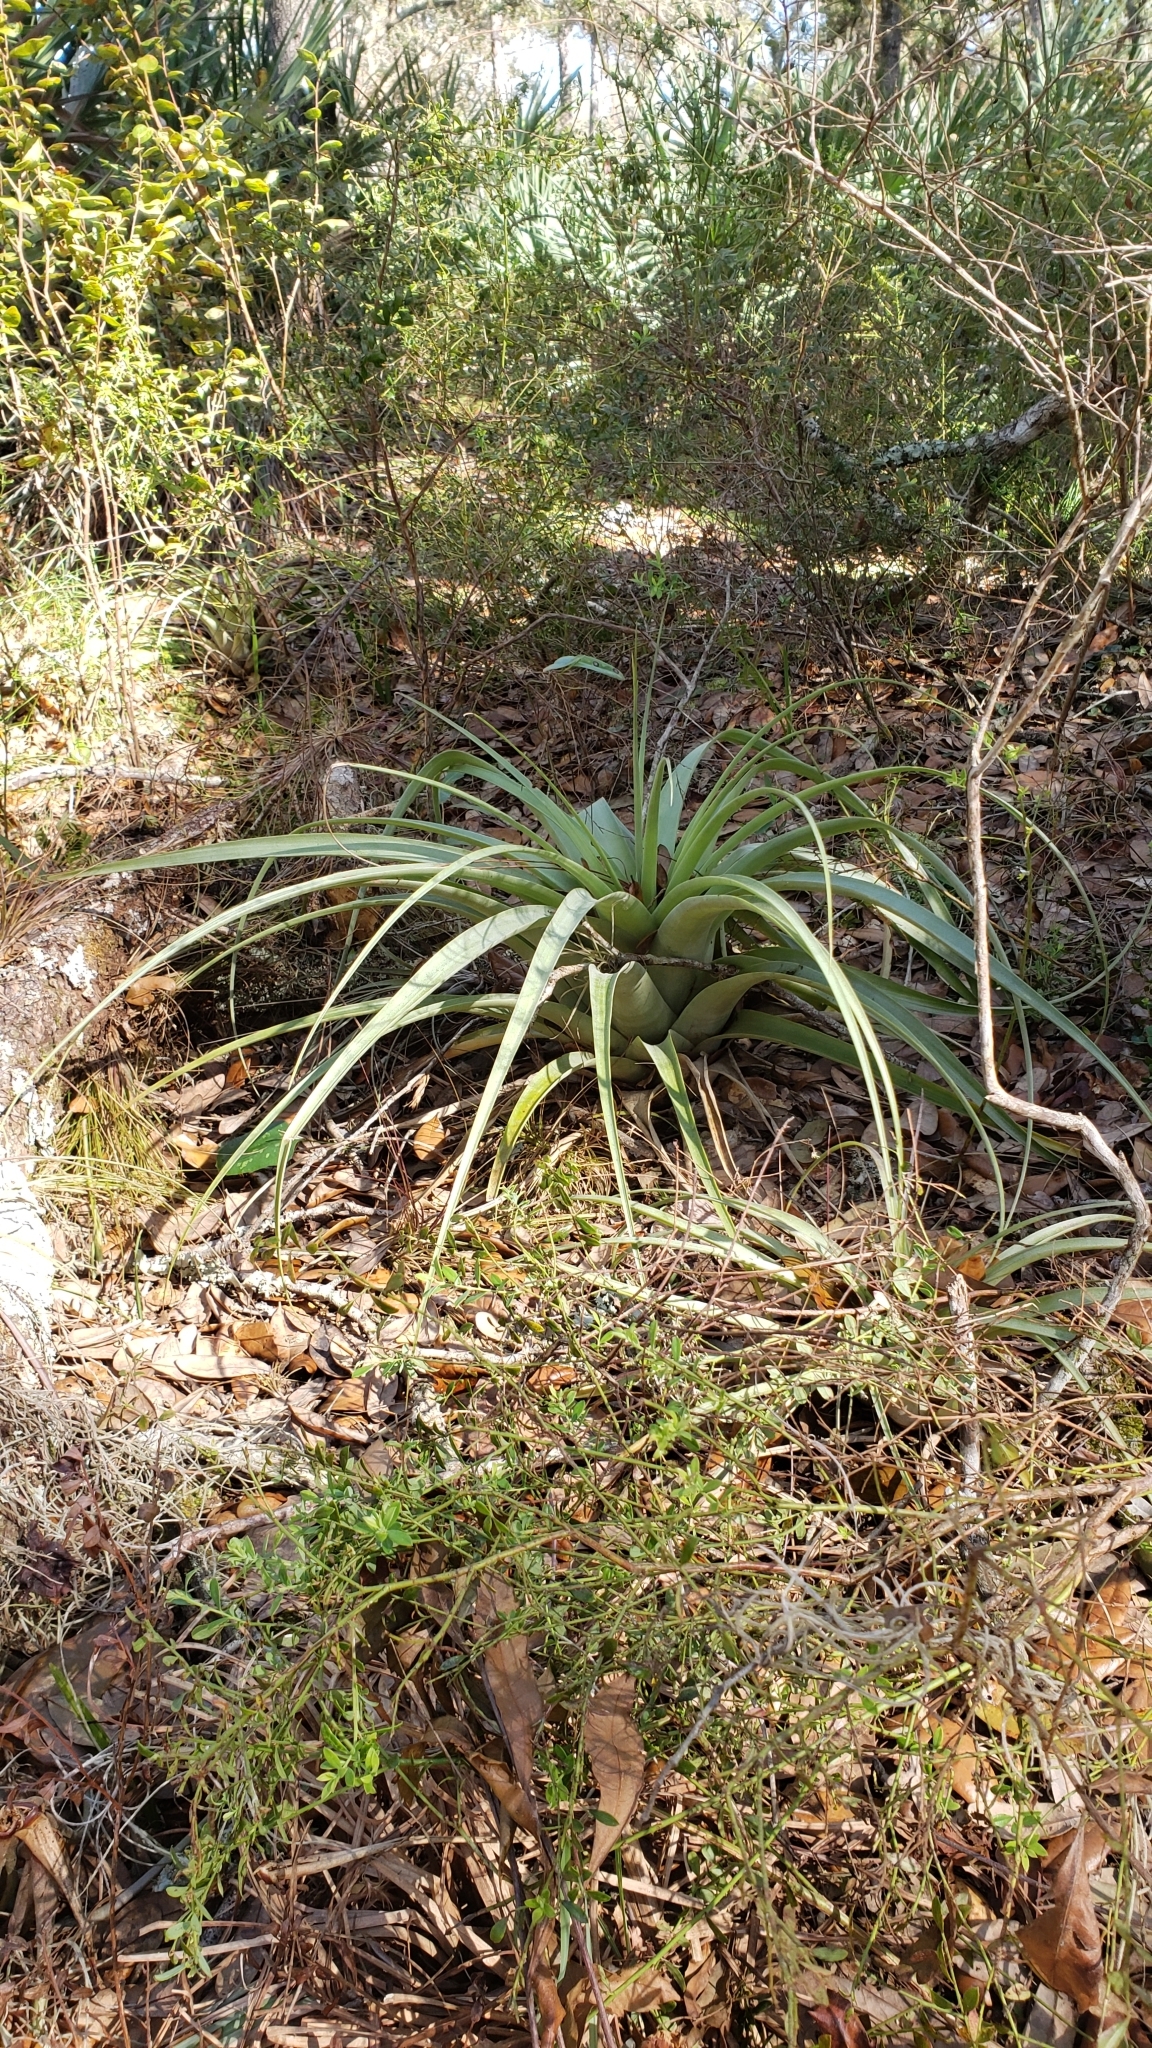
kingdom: Plantae
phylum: Tracheophyta
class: Liliopsida
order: Poales
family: Bromeliaceae
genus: Tillandsia
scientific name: Tillandsia utriculata
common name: Wild pine
